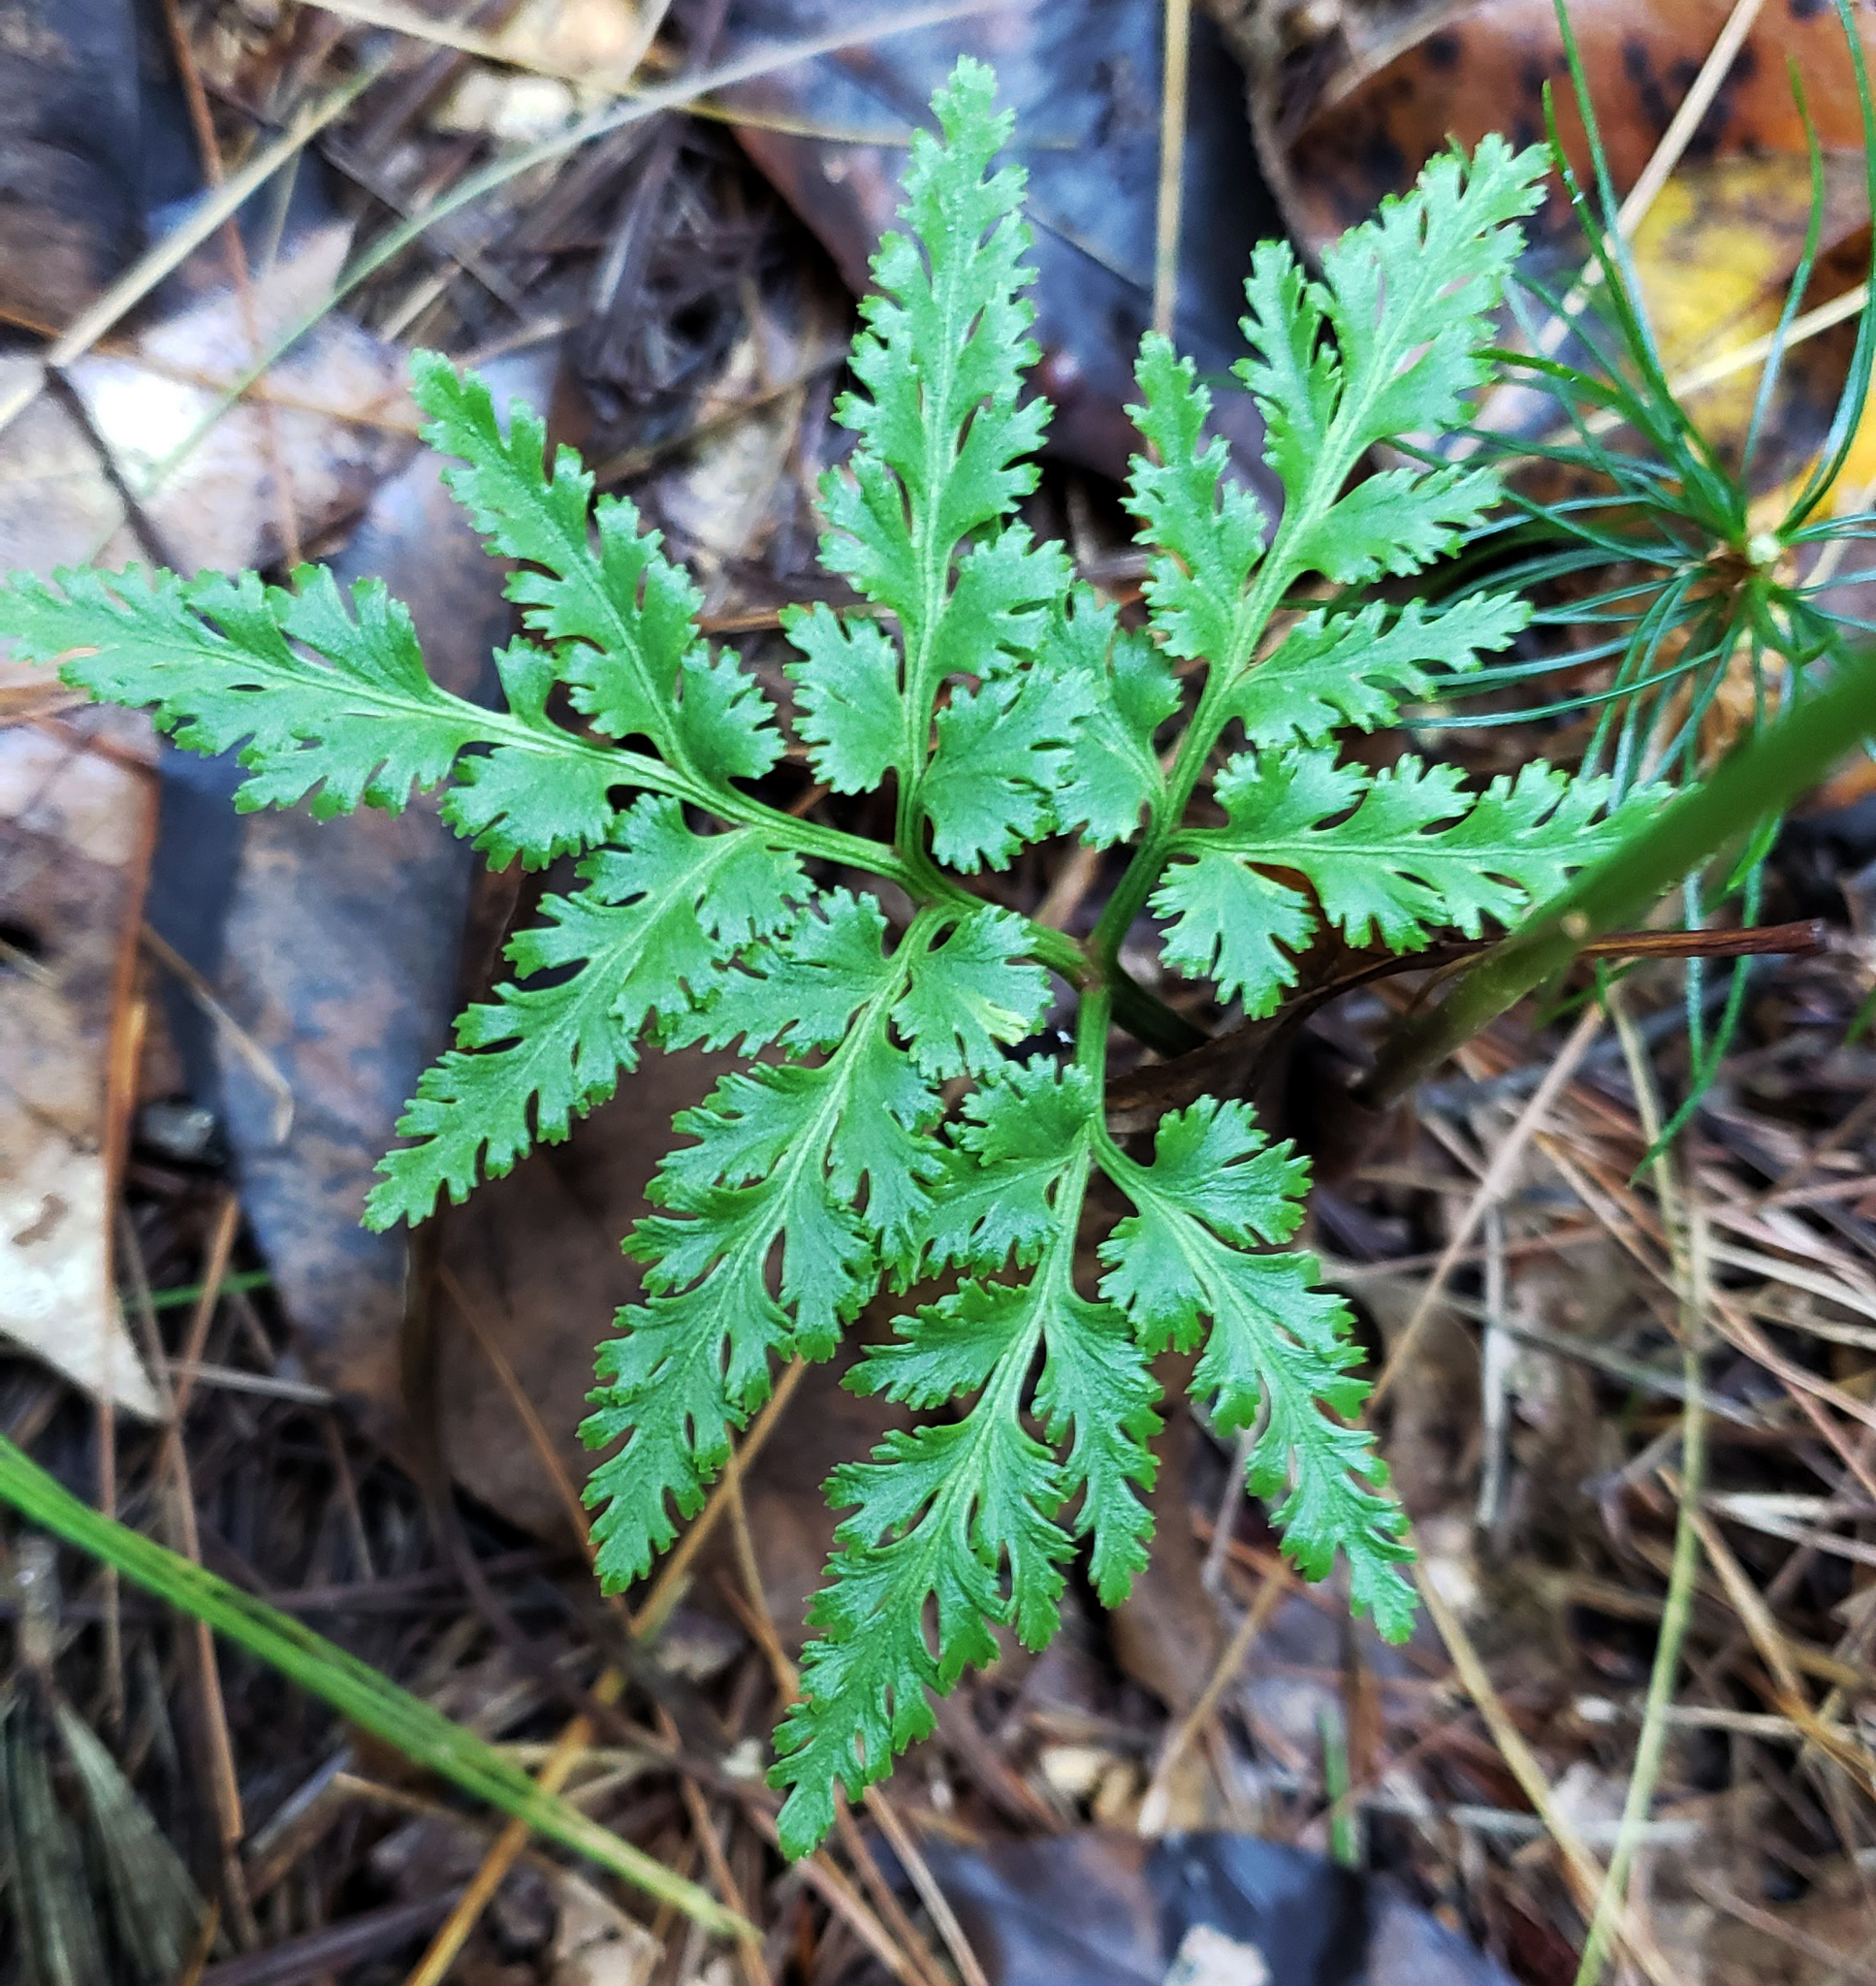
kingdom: Plantae
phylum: Tracheophyta
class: Polypodiopsida
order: Ophioglossales
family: Ophioglossaceae
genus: Sceptridium
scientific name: Sceptridium dissectum
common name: Cut-leaved grapefern
